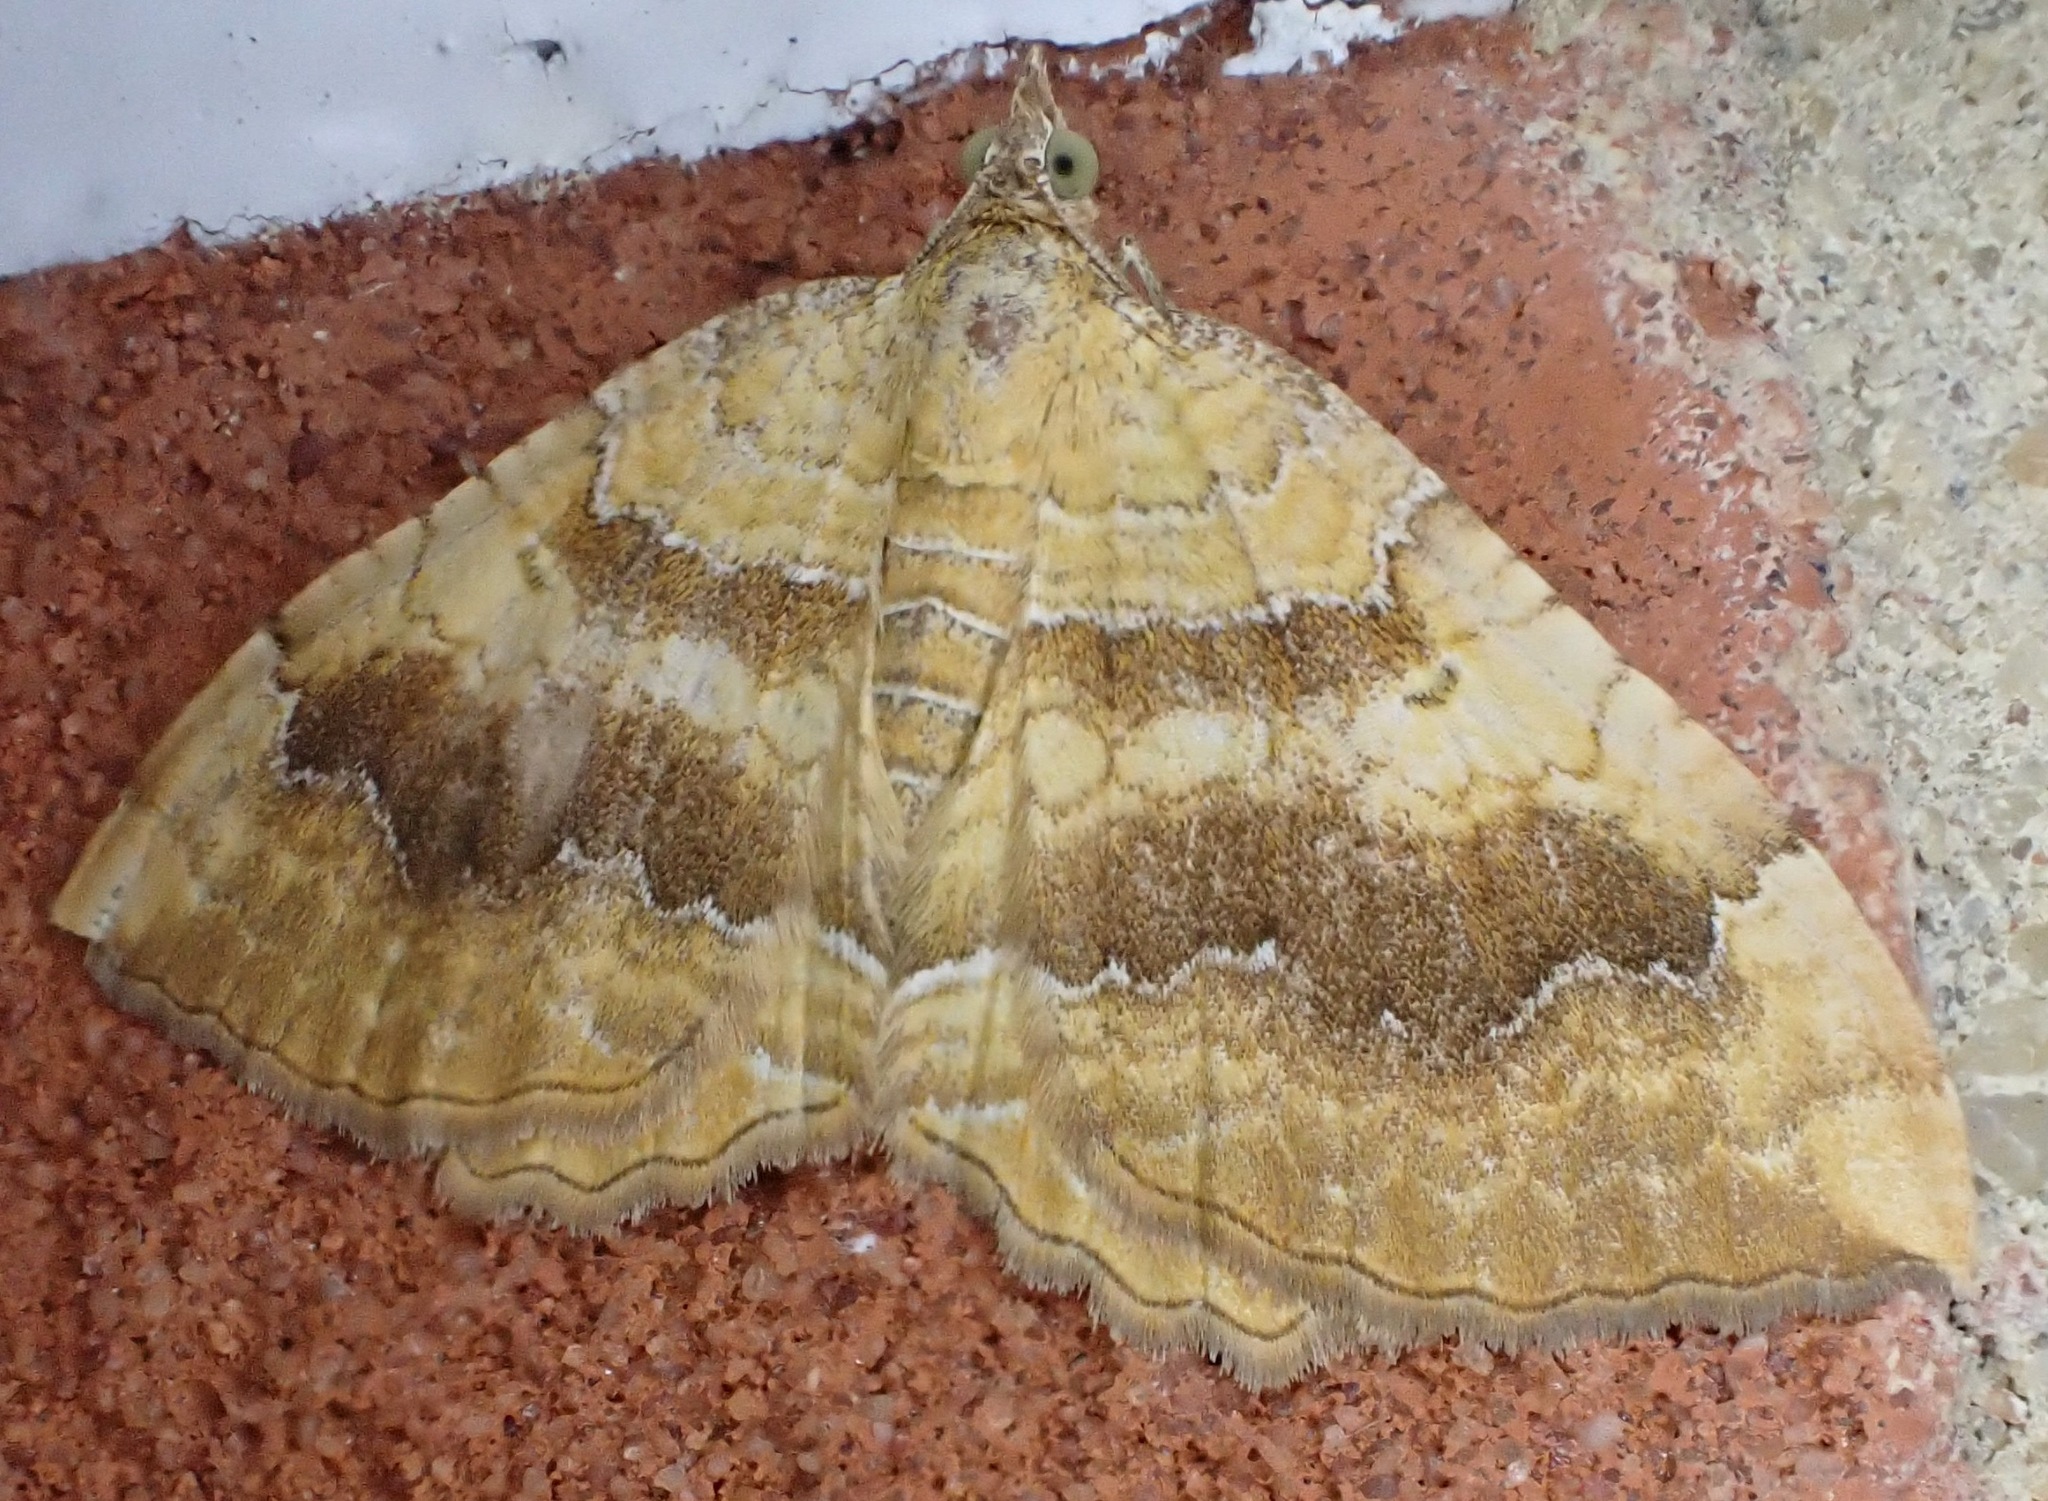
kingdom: Animalia
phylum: Arthropoda
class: Insecta
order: Lepidoptera
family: Geometridae
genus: Camptogramma
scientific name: Camptogramma bilineata
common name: Yellow shell
